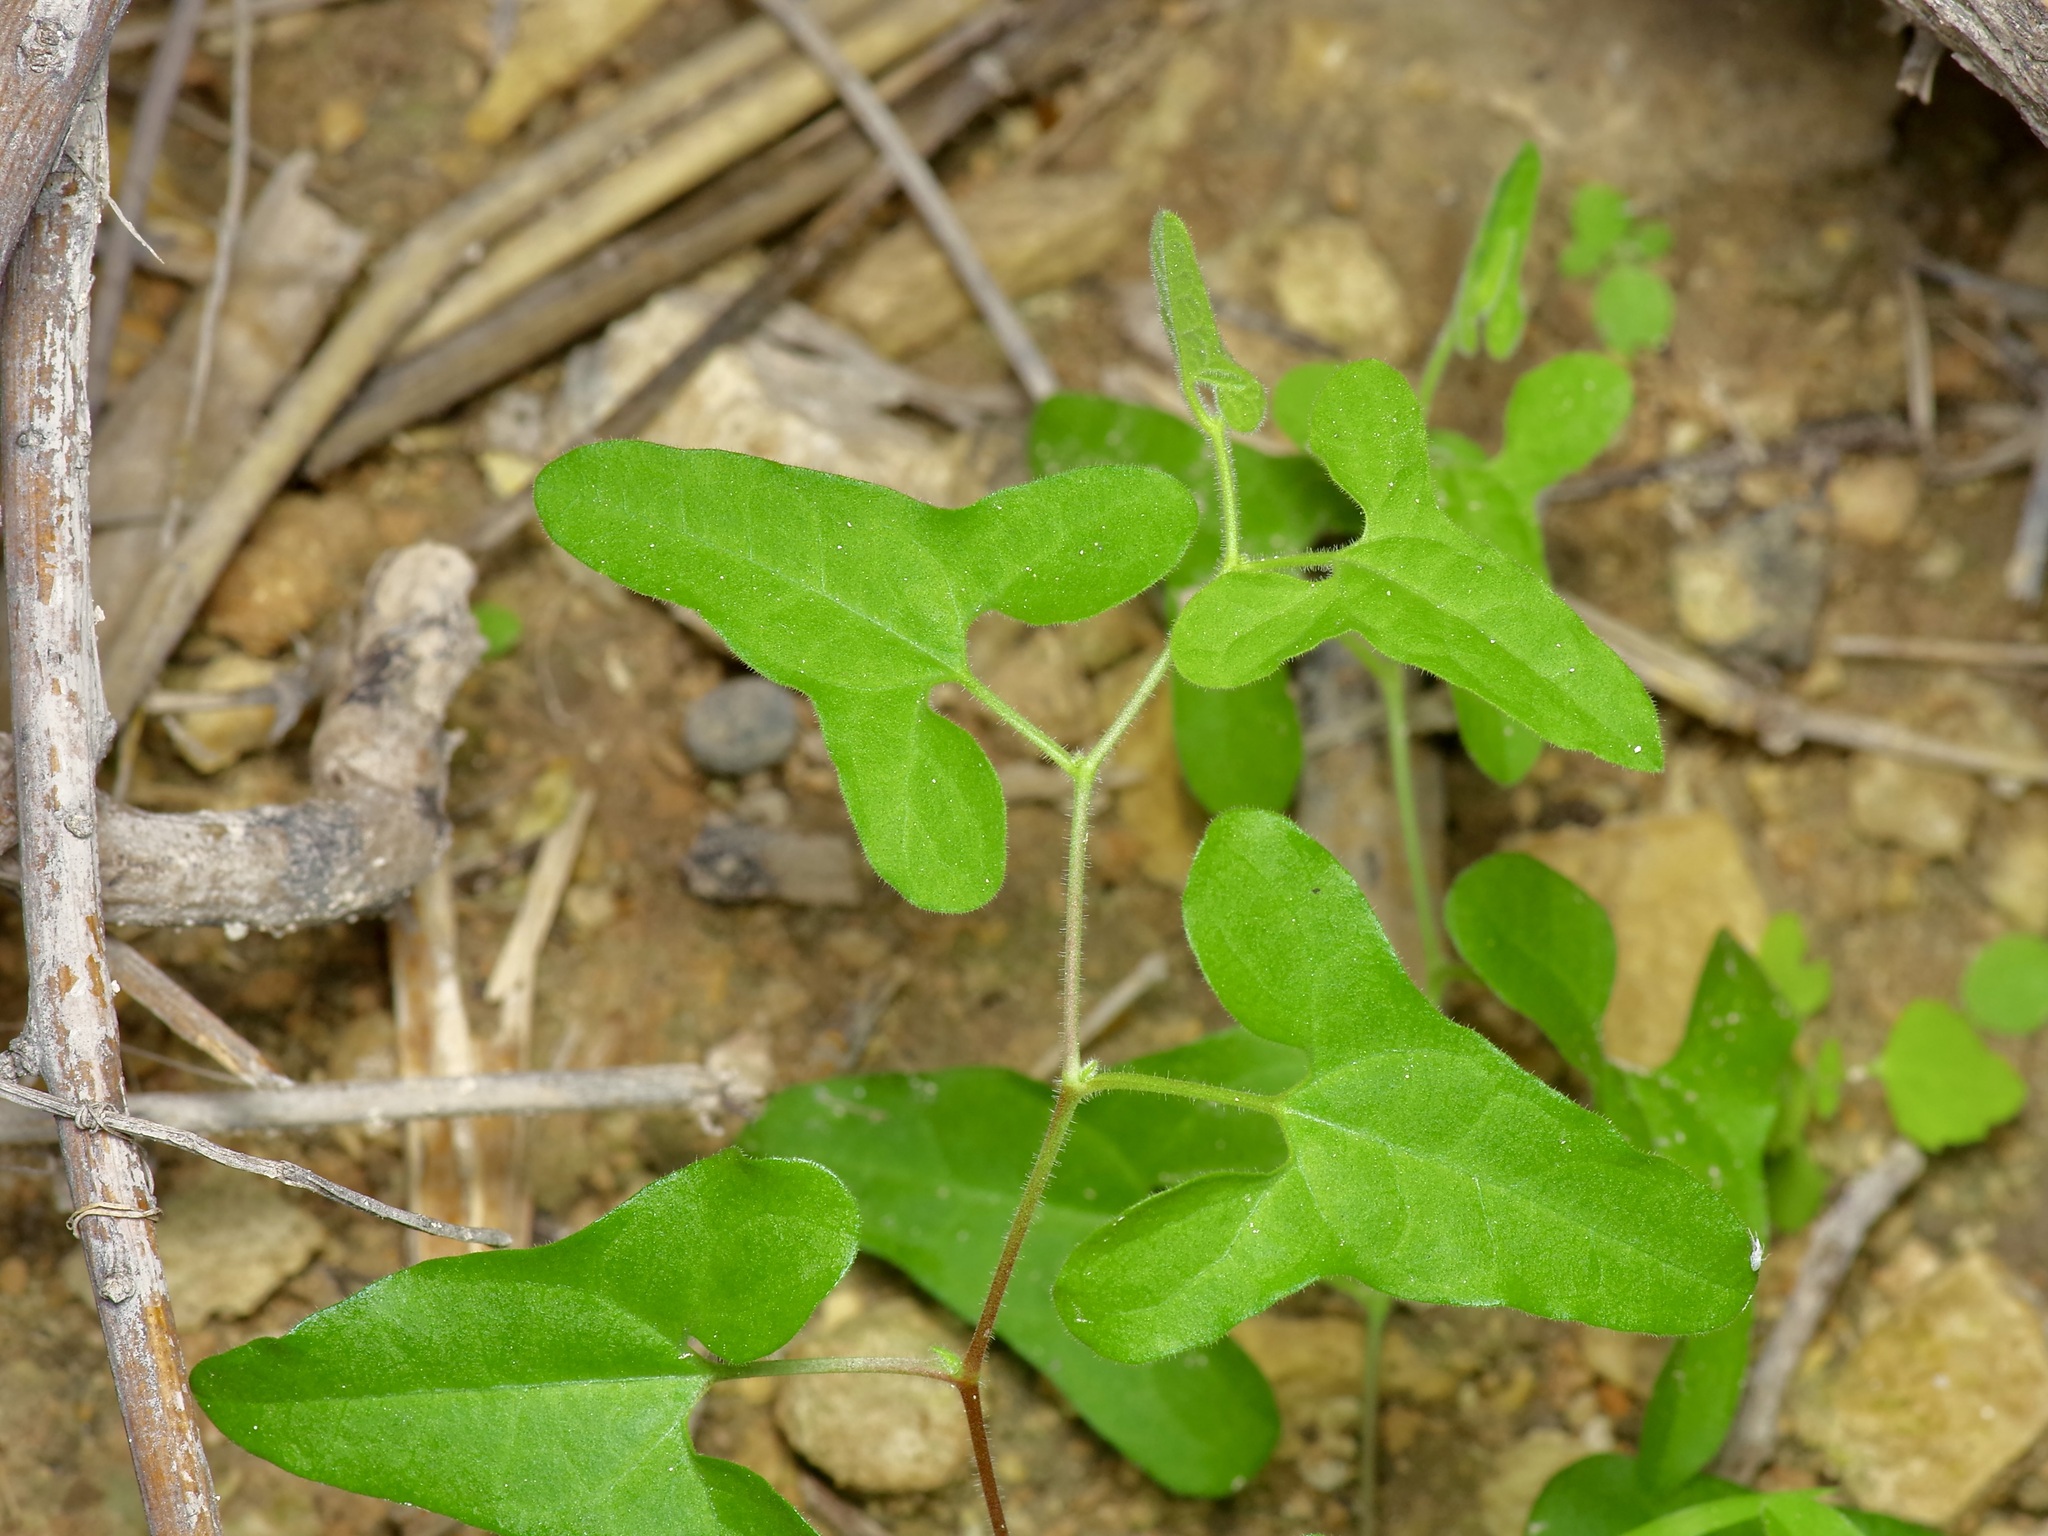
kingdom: Plantae
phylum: Tracheophyta
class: Magnoliopsida
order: Piperales
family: Aristolochiaceae
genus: Aristolochia
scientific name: Aristolochia coryi
